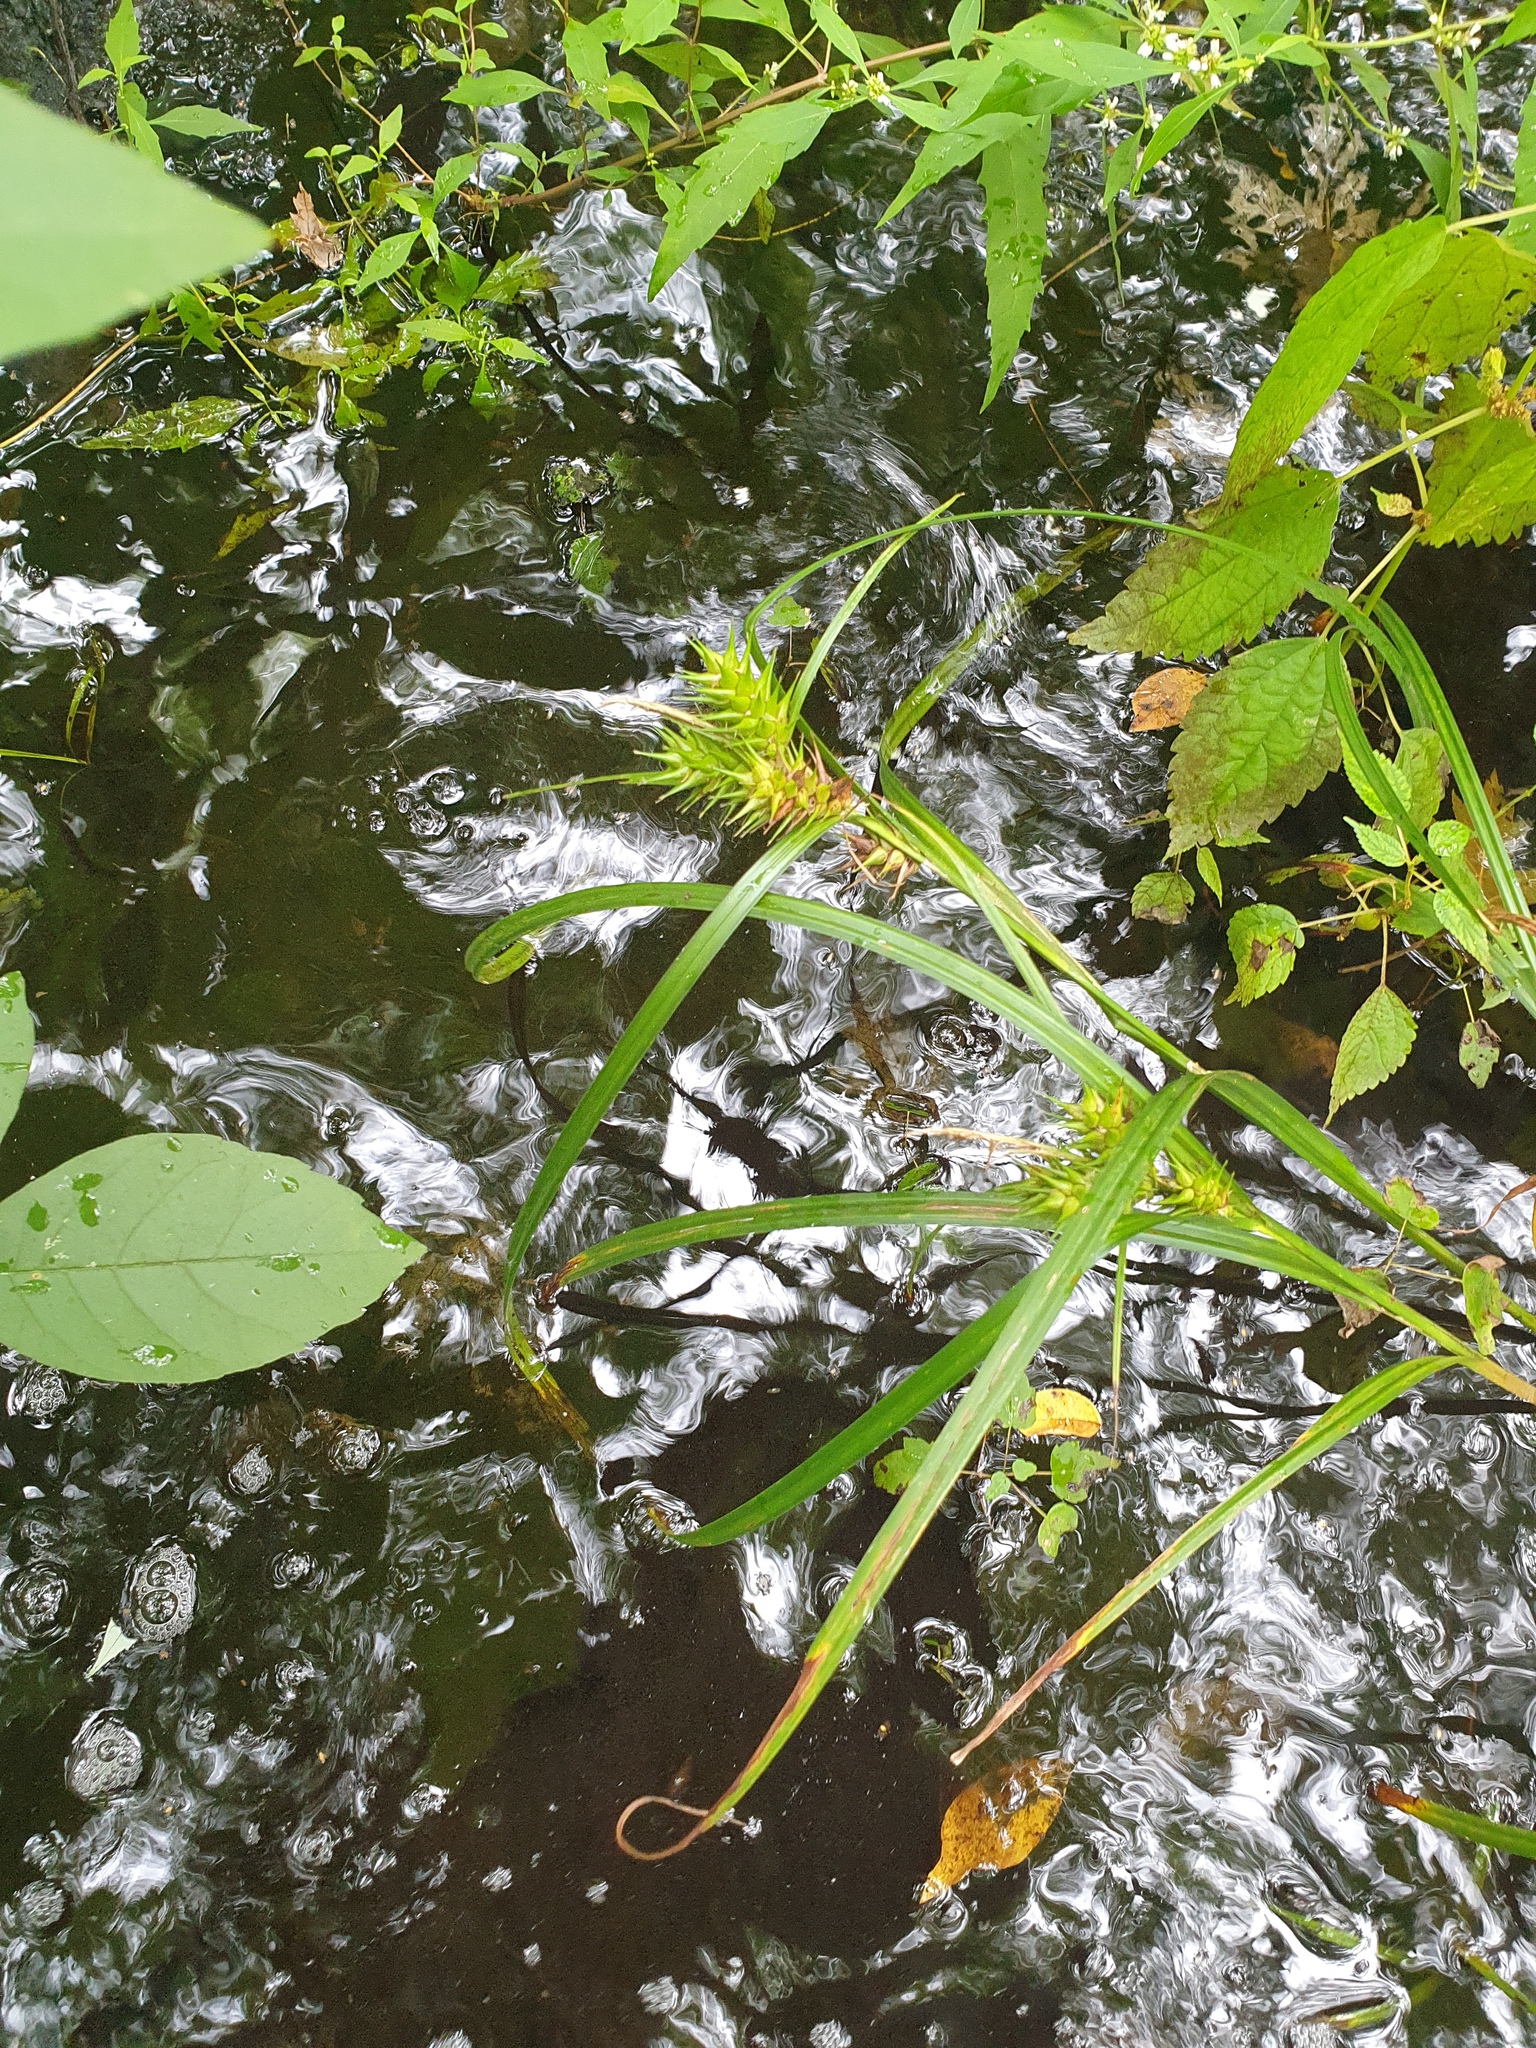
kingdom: Plantae
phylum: Tracheophyta
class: Liliopsida
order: Poales
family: Cyperaceae
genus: Carex
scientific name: Carex lupulina
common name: Hop sedge
